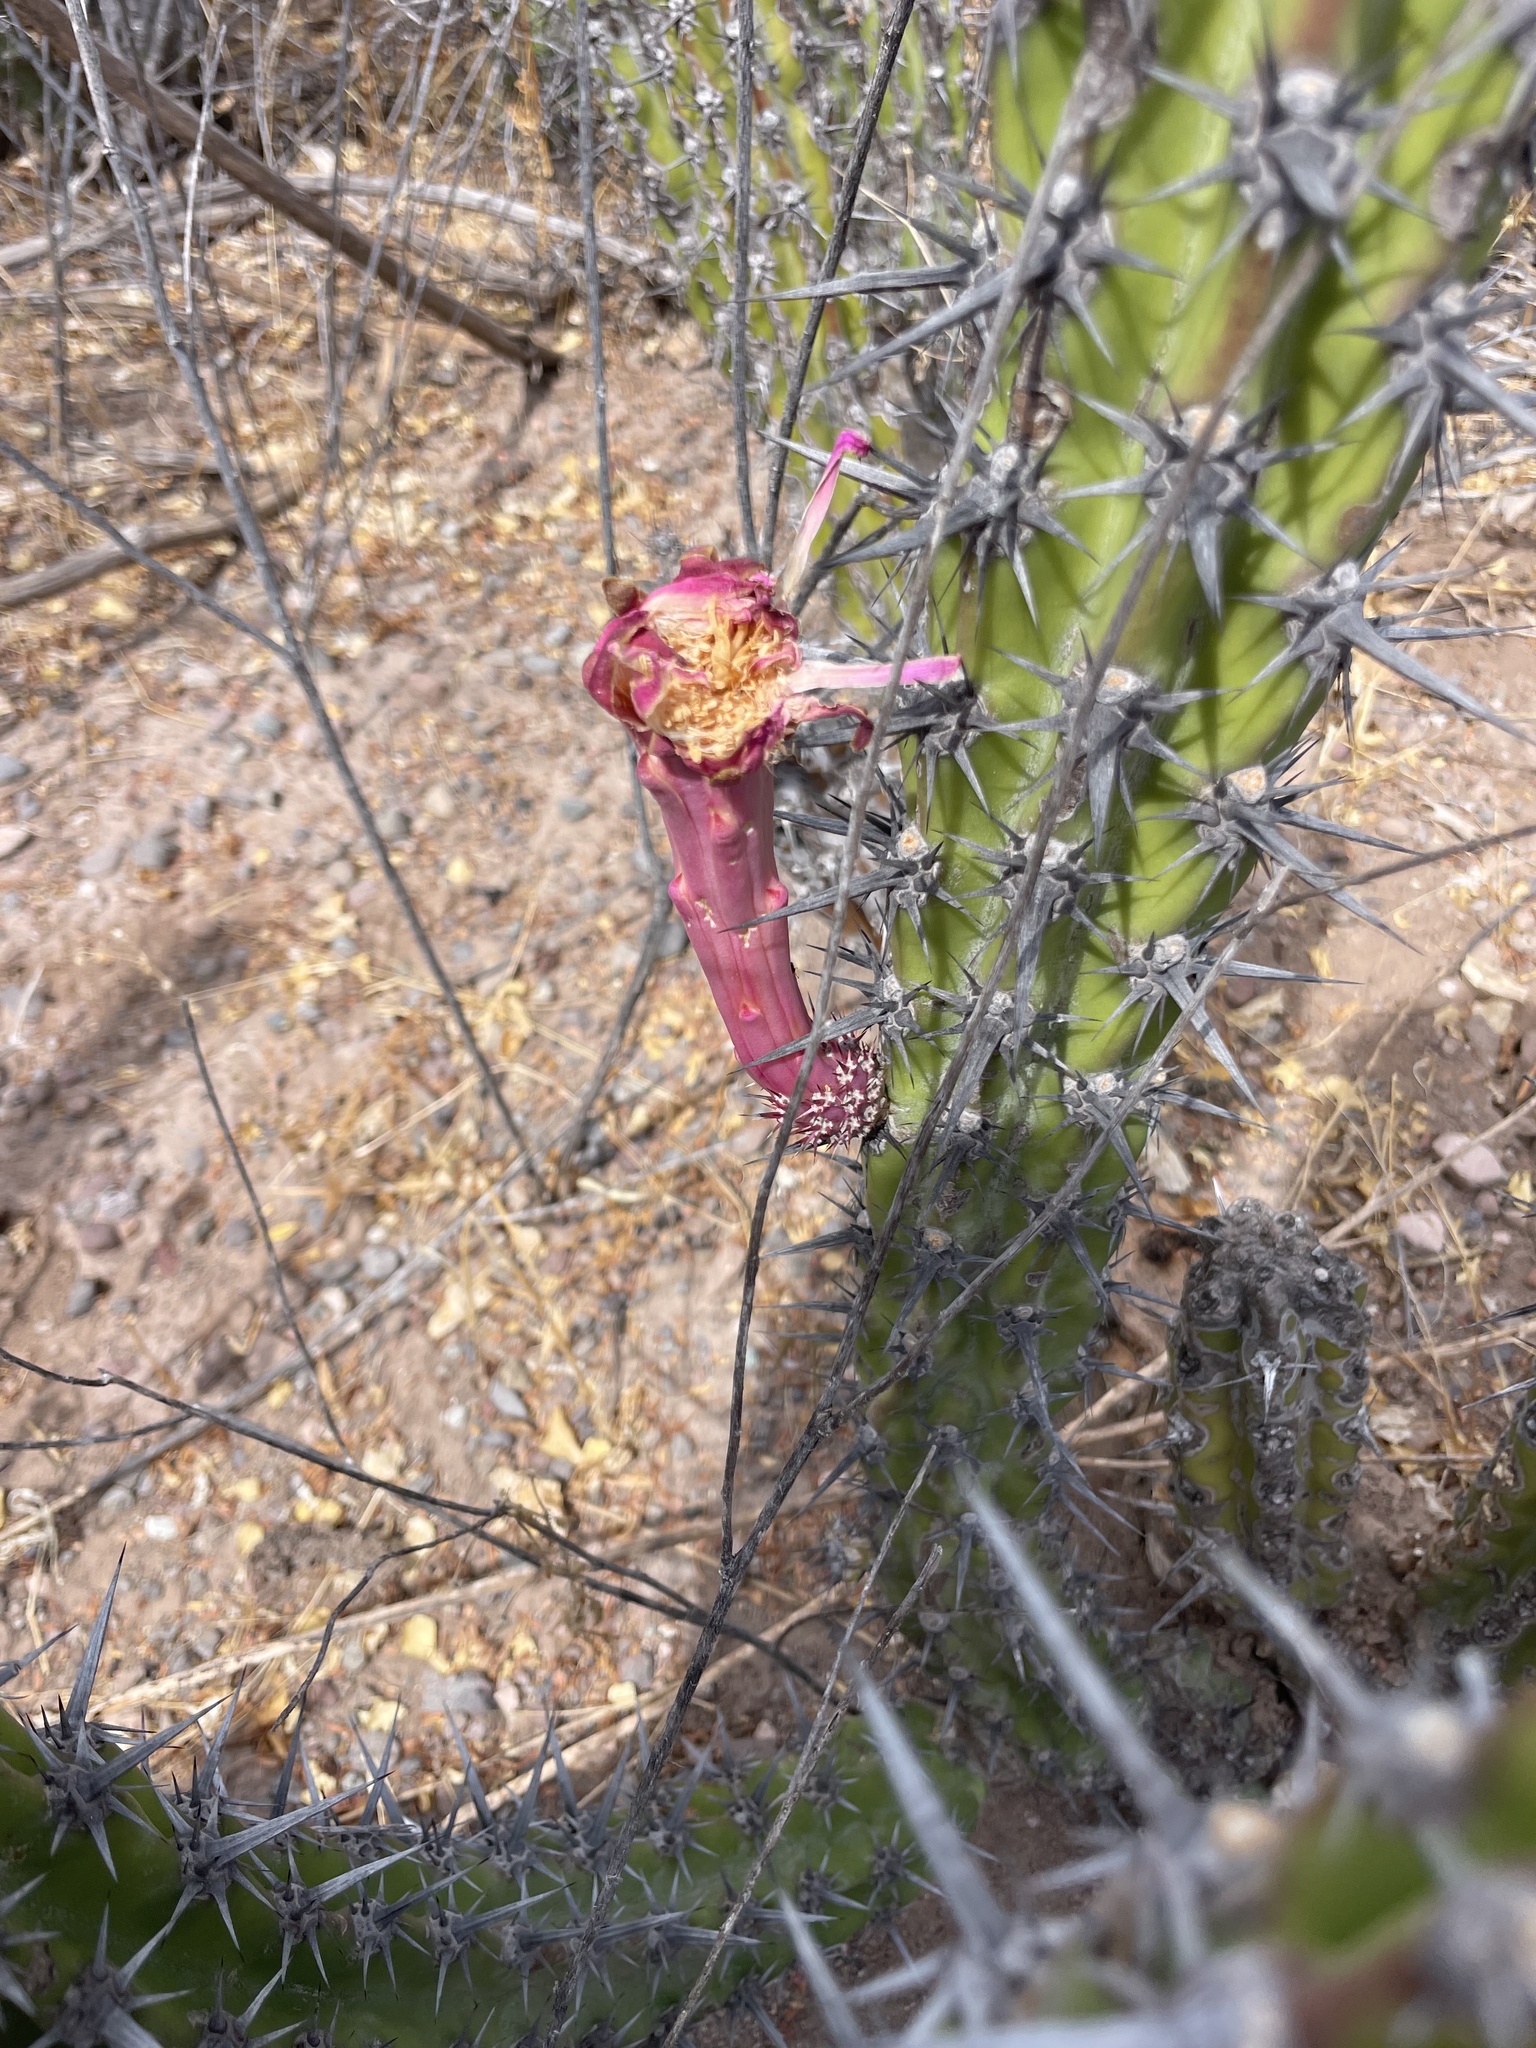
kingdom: Plantae
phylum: Tracheophyta
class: Magnoliopsida
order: Caryophyllales
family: Cactaceae
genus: Stenocereus
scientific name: Stenocereus gummosus
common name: Dagger cactus
